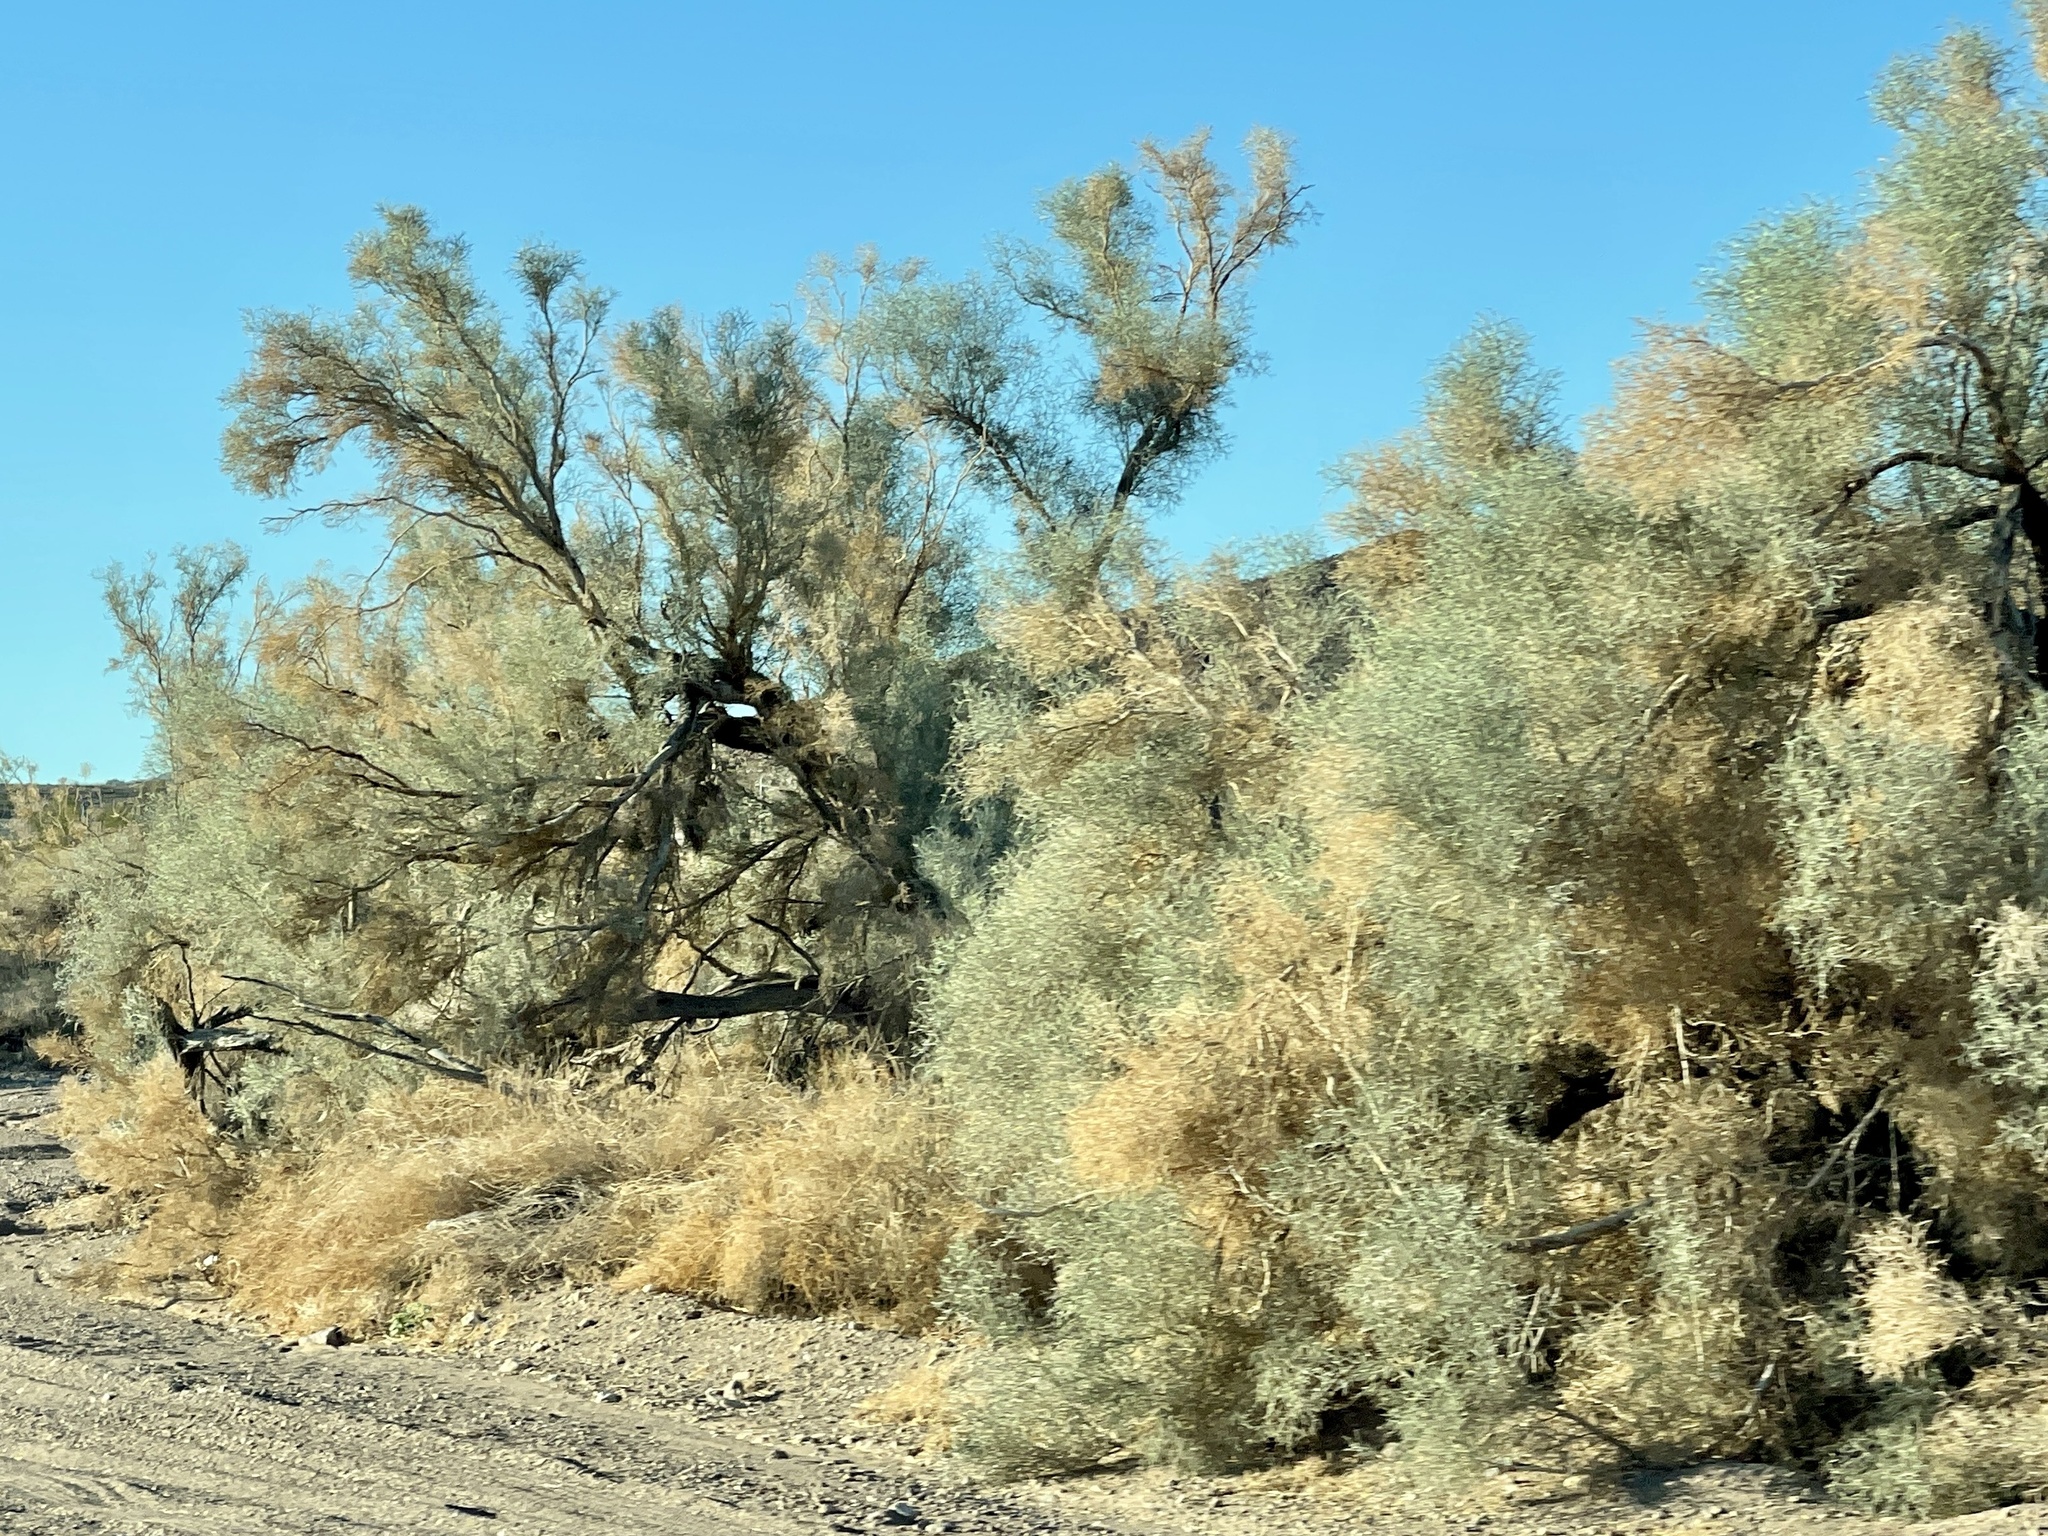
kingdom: Plantae
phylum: Tracheophyta
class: Magnoliopsida
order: Fabales
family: Fabaceae
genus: Psorothamnus
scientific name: Psorothamnus spinosus
